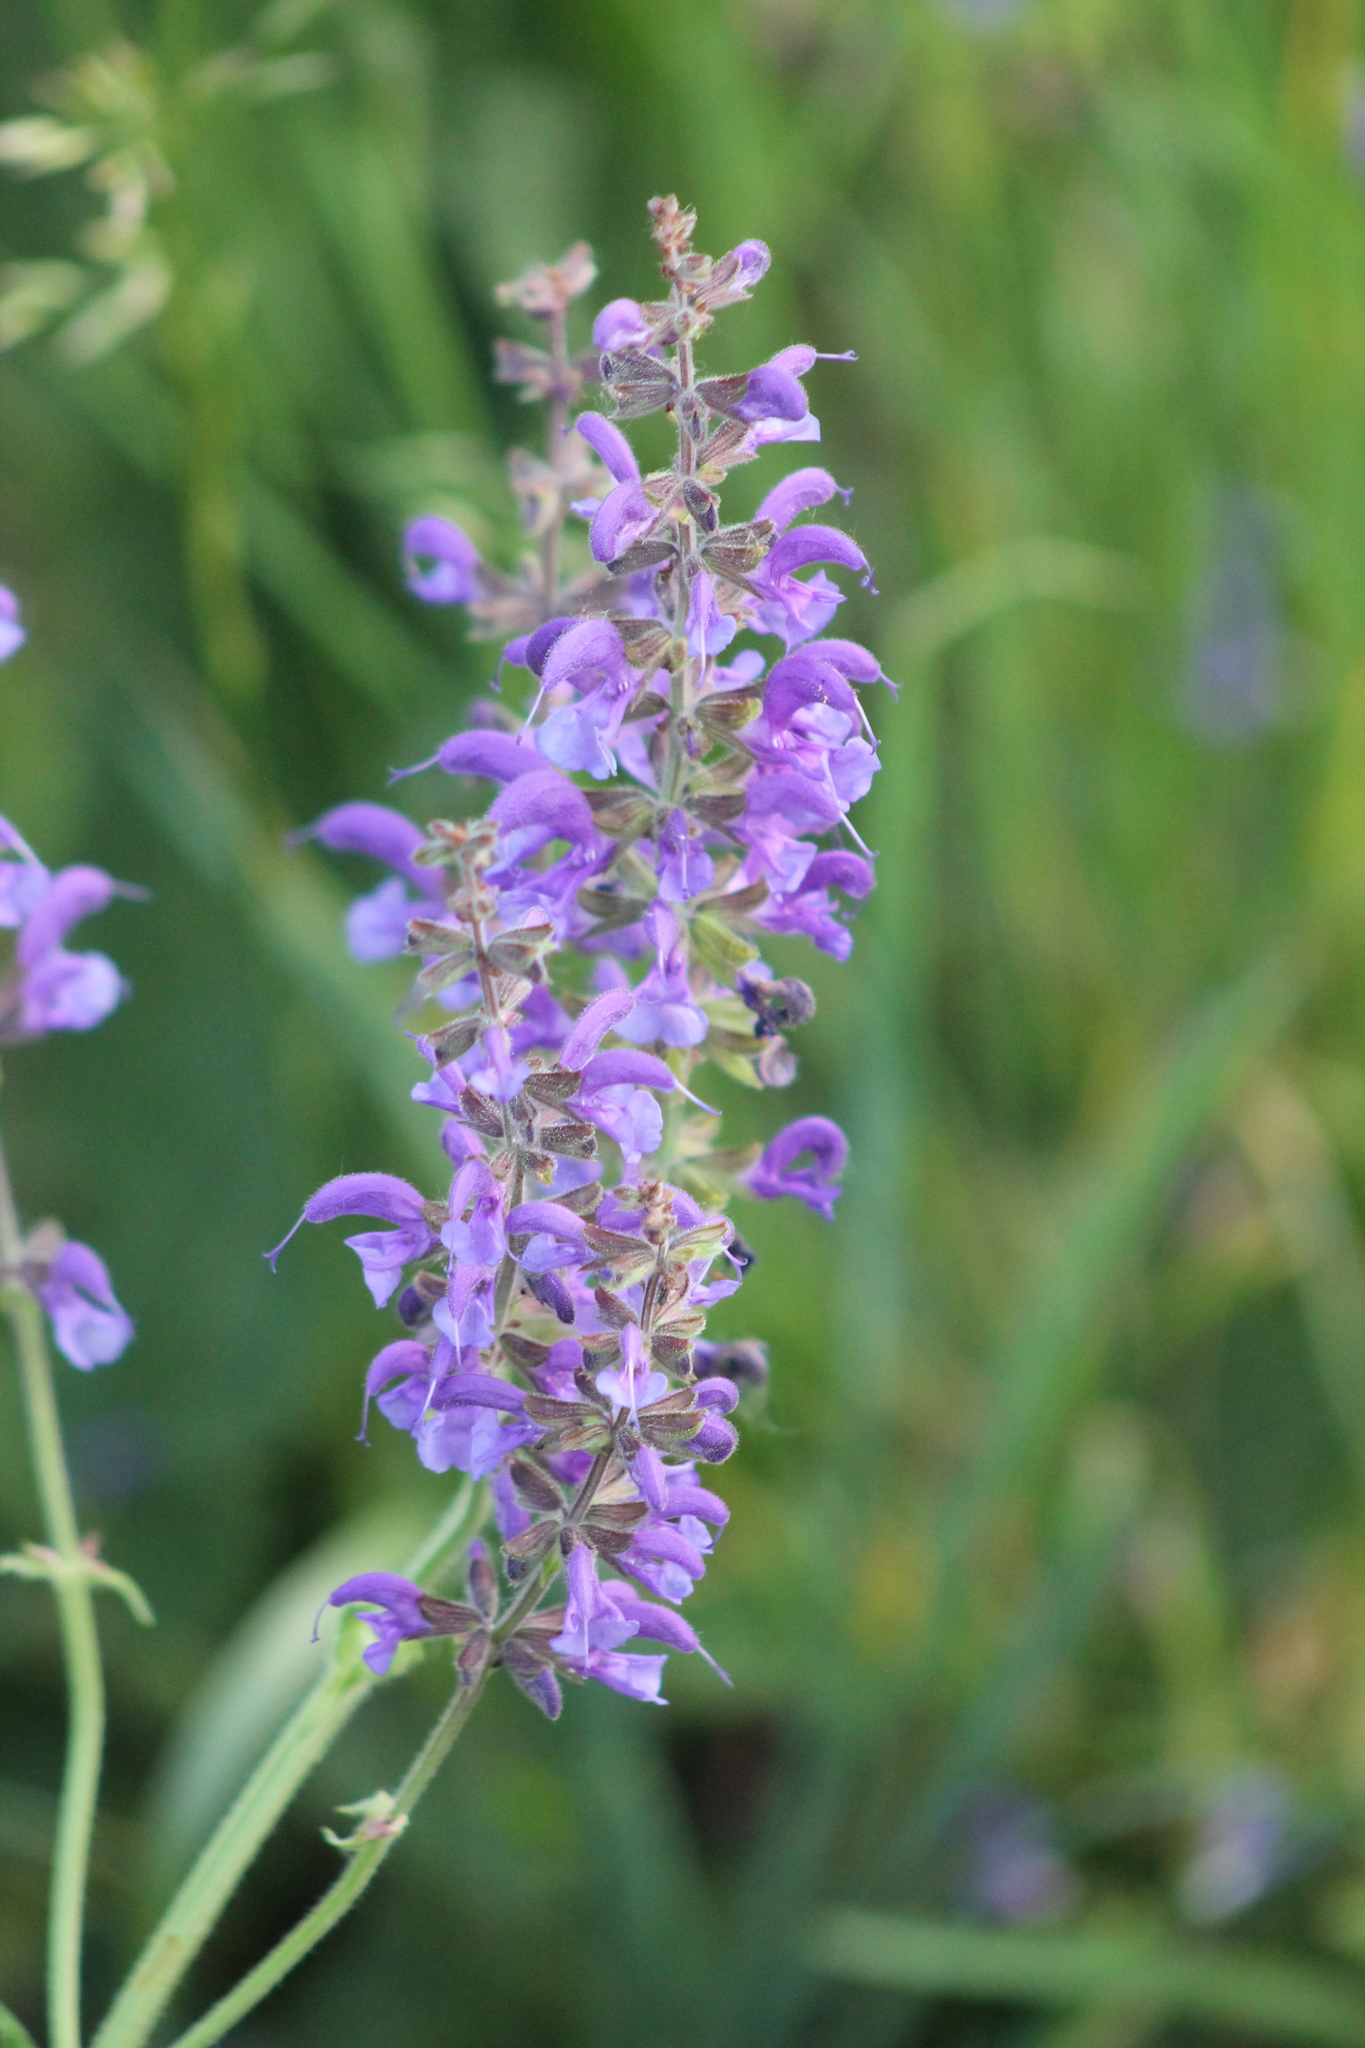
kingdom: Plantae
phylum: Tracheophyta
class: Magnoliopsida
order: Lamiales
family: Lamiaceae
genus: Salvia
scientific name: Salvia pratensis
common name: Meadow sage
